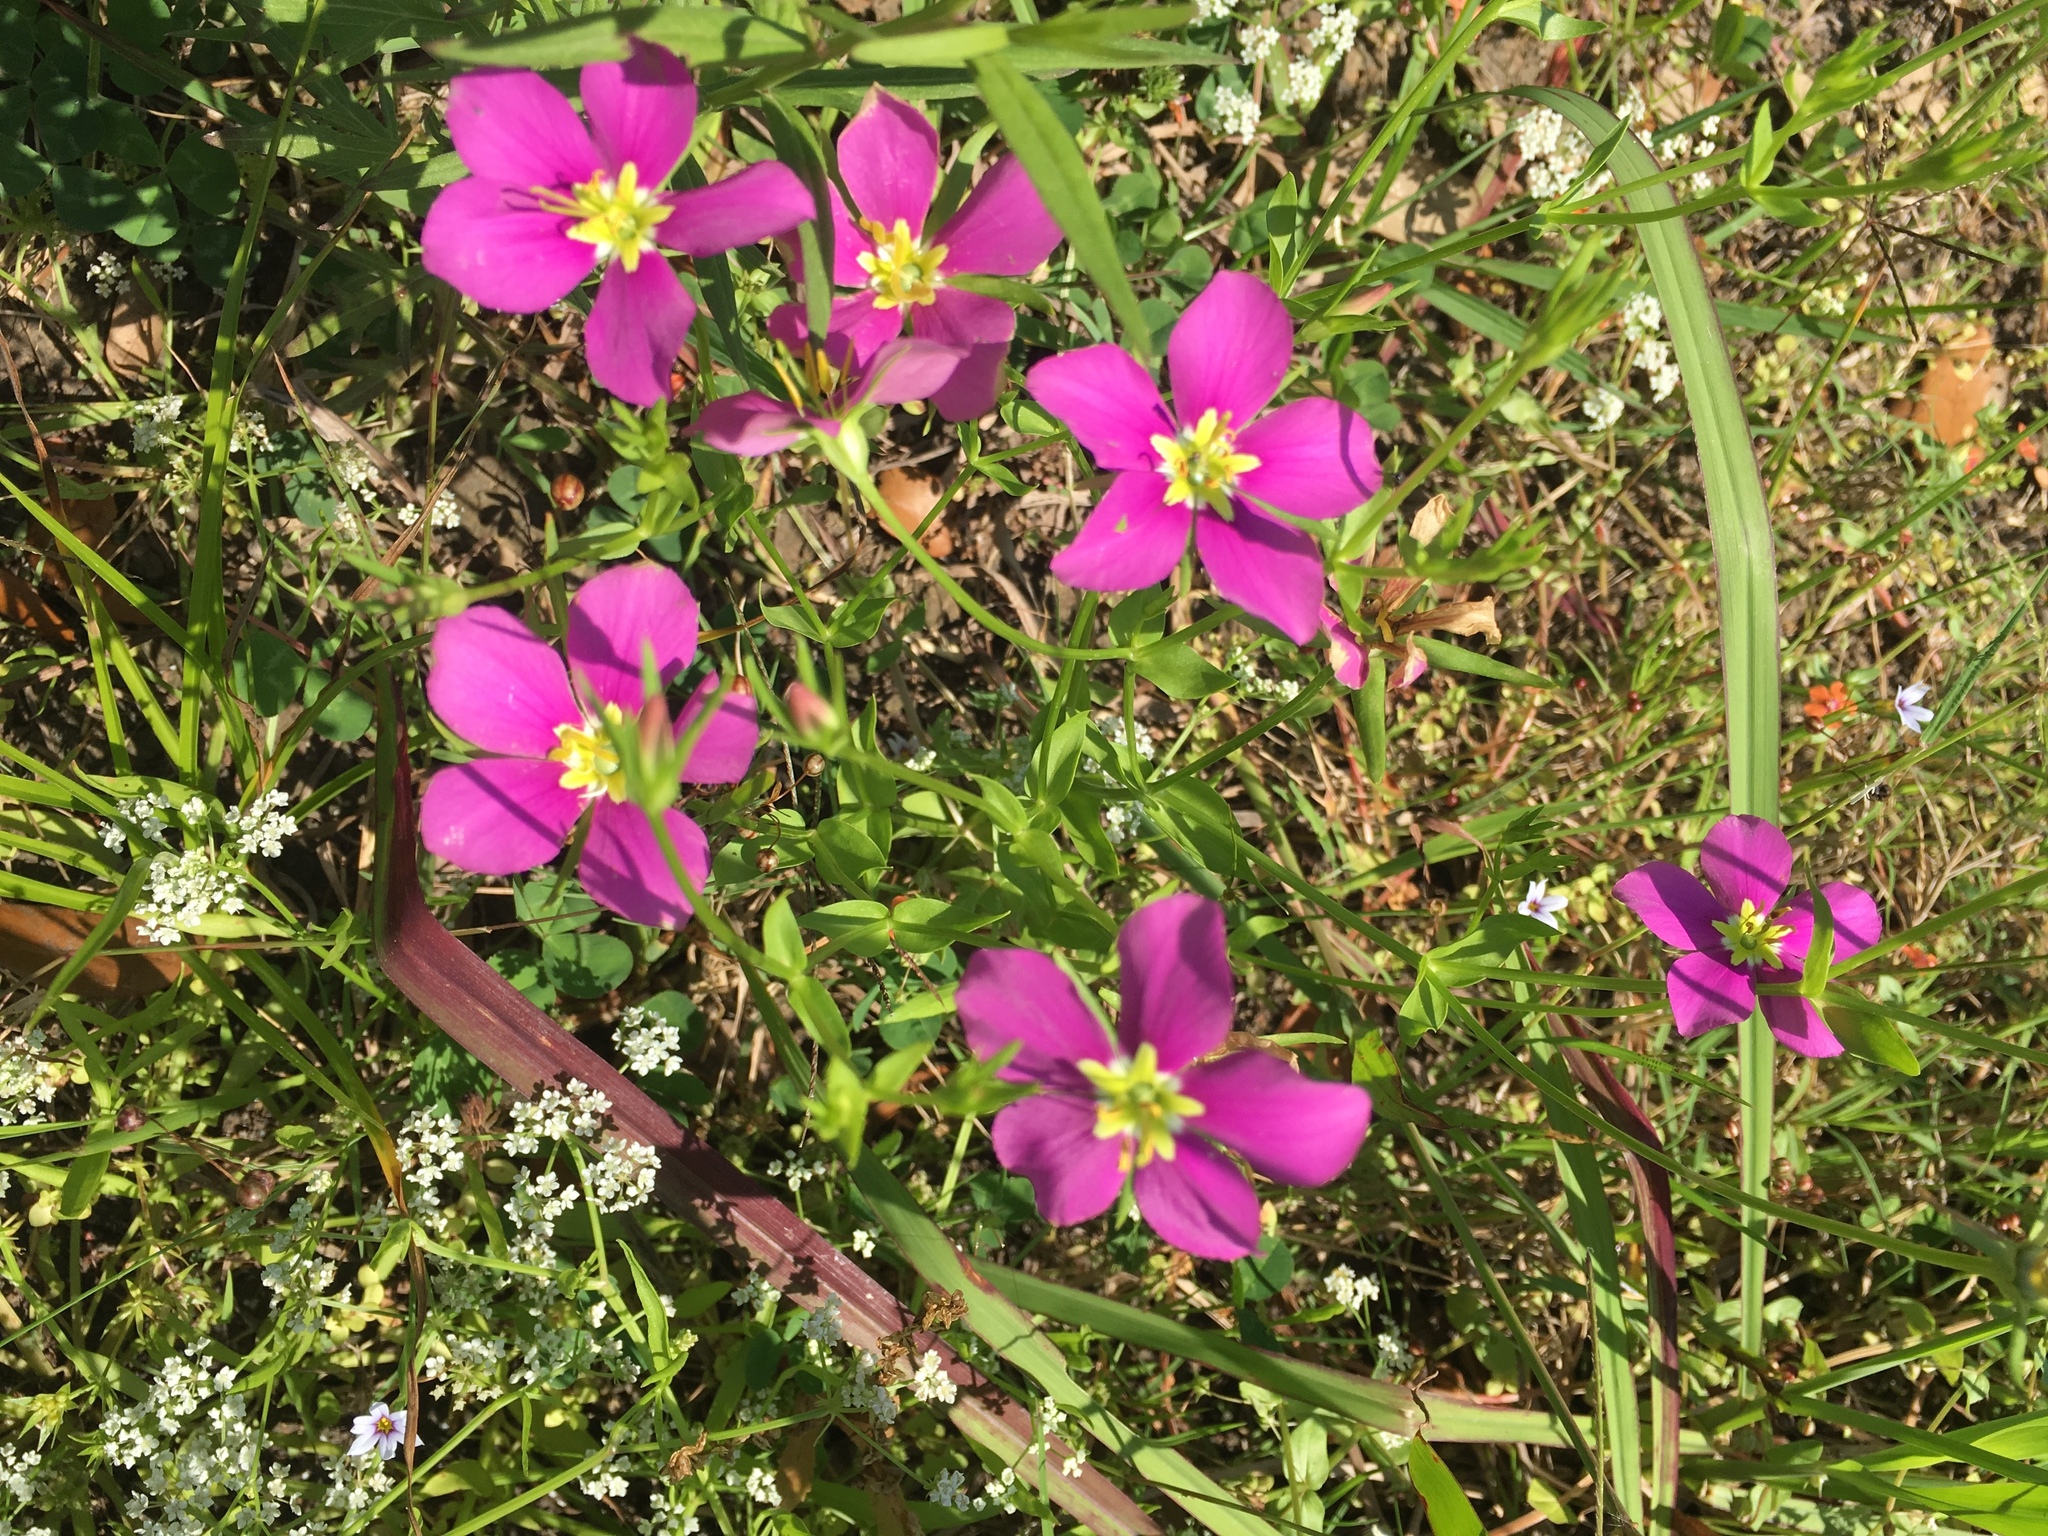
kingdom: Plantae
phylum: Tracheophyta
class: Magnoliopsida
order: Gentianales
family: Gentianaceae
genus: Sabatia
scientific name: Sabatia campestris
